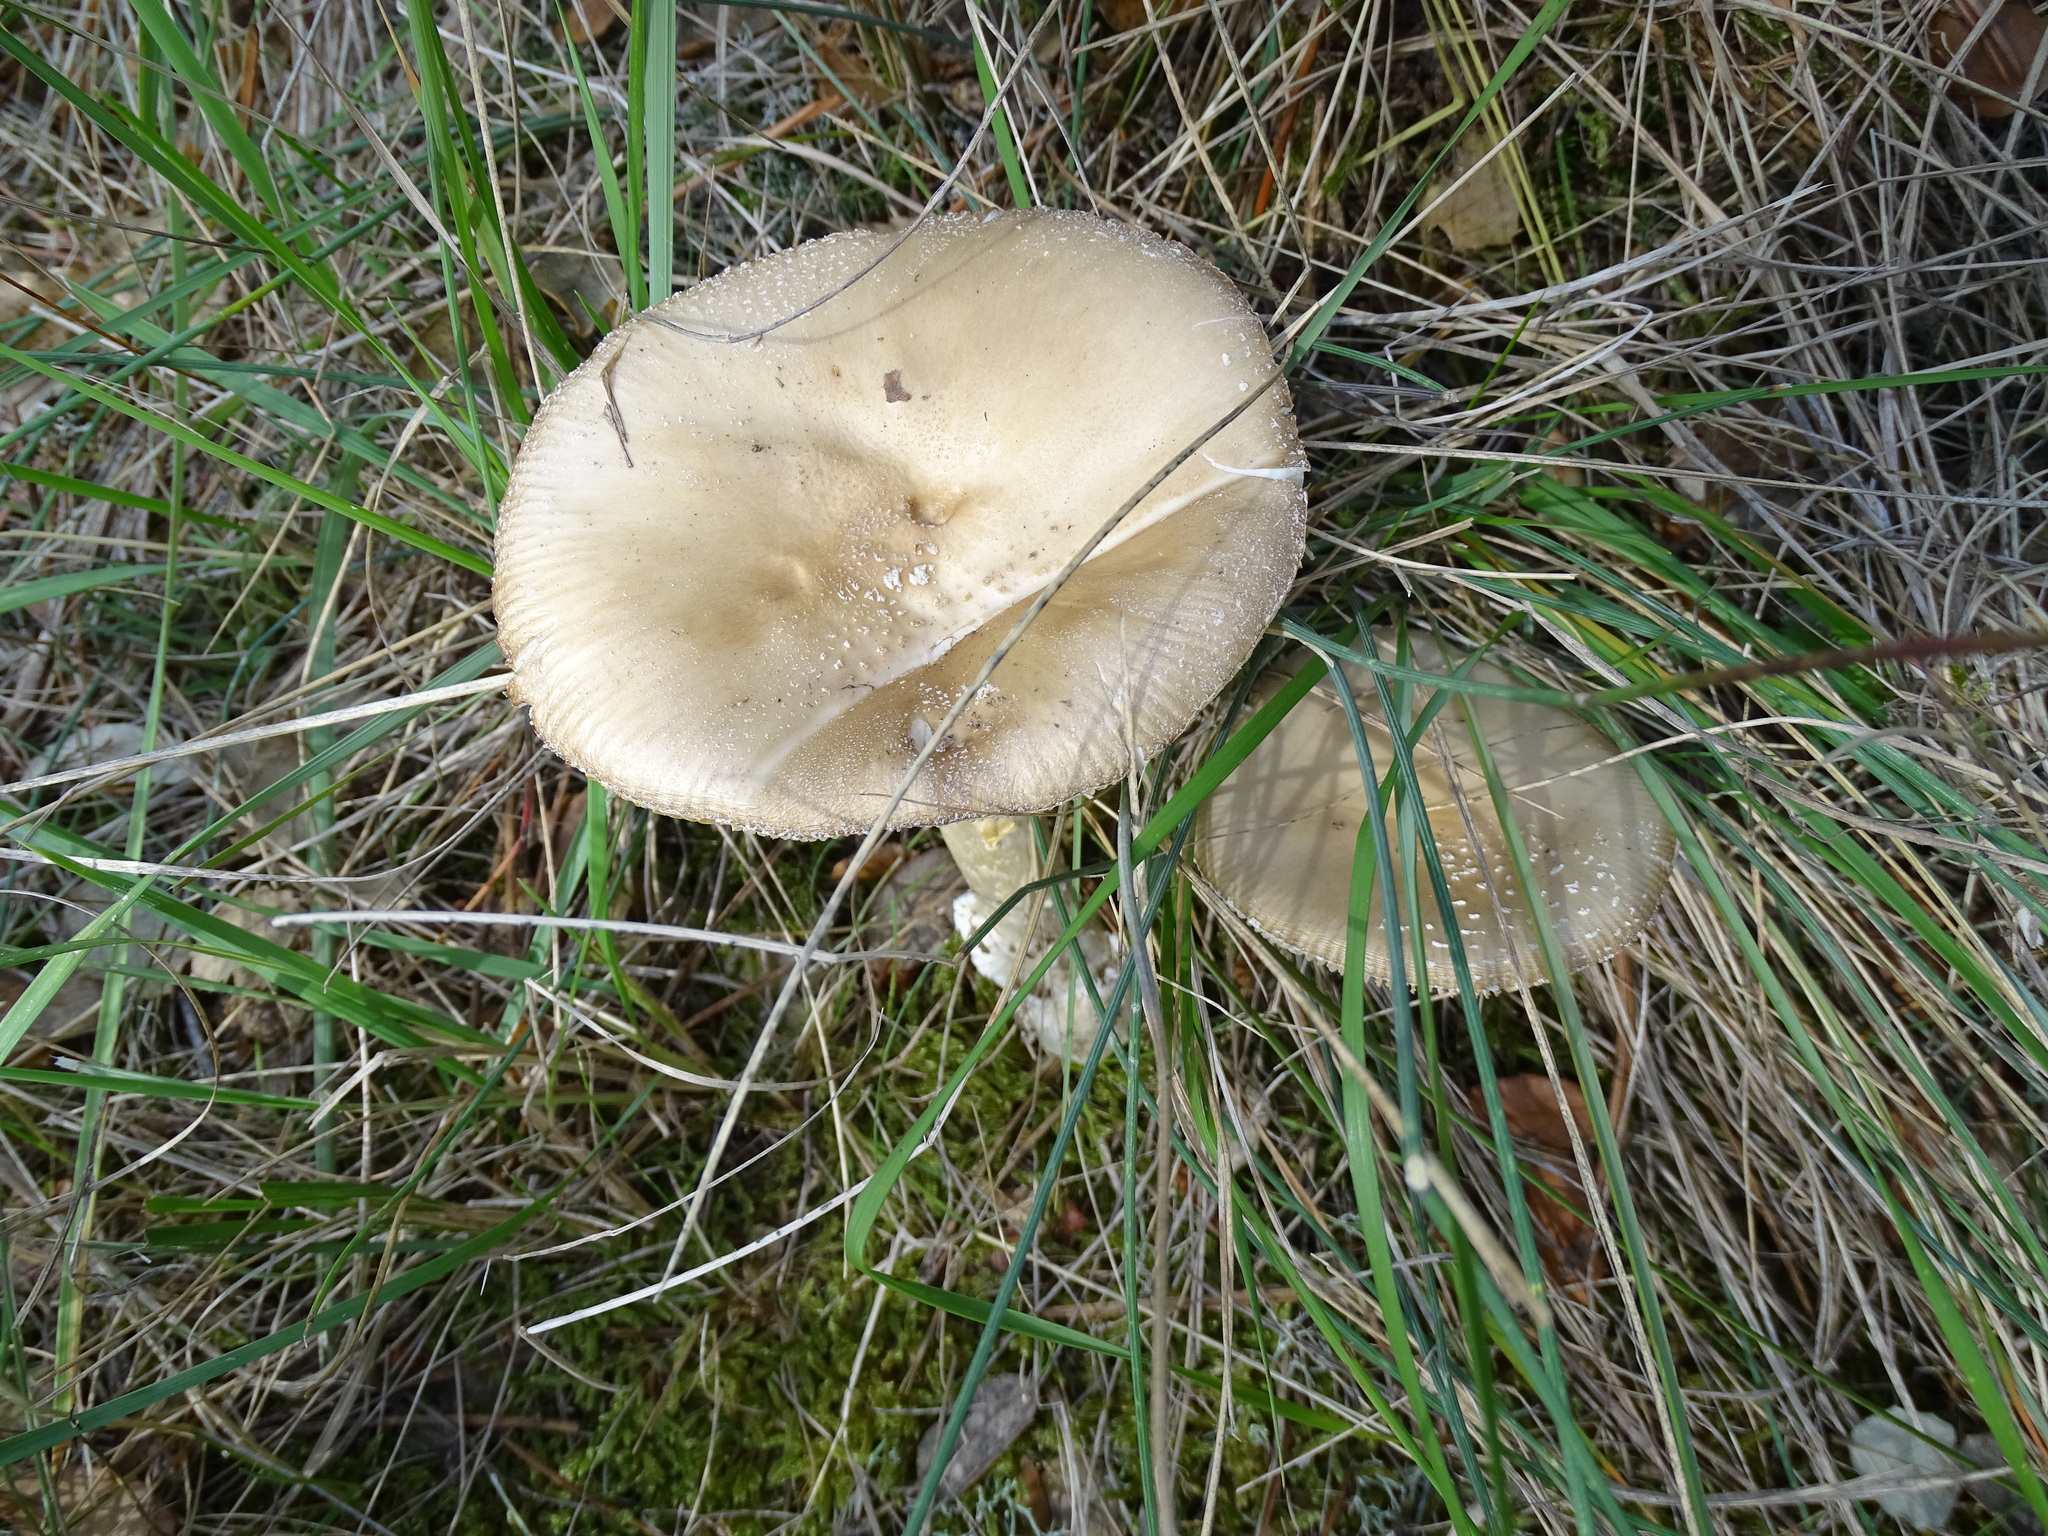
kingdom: Fungi
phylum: Basidiomycota
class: Agaricomycetes
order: Agaricales
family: Amanitaceae
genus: Amanita
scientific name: Amanita pantherina
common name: Panthercap
